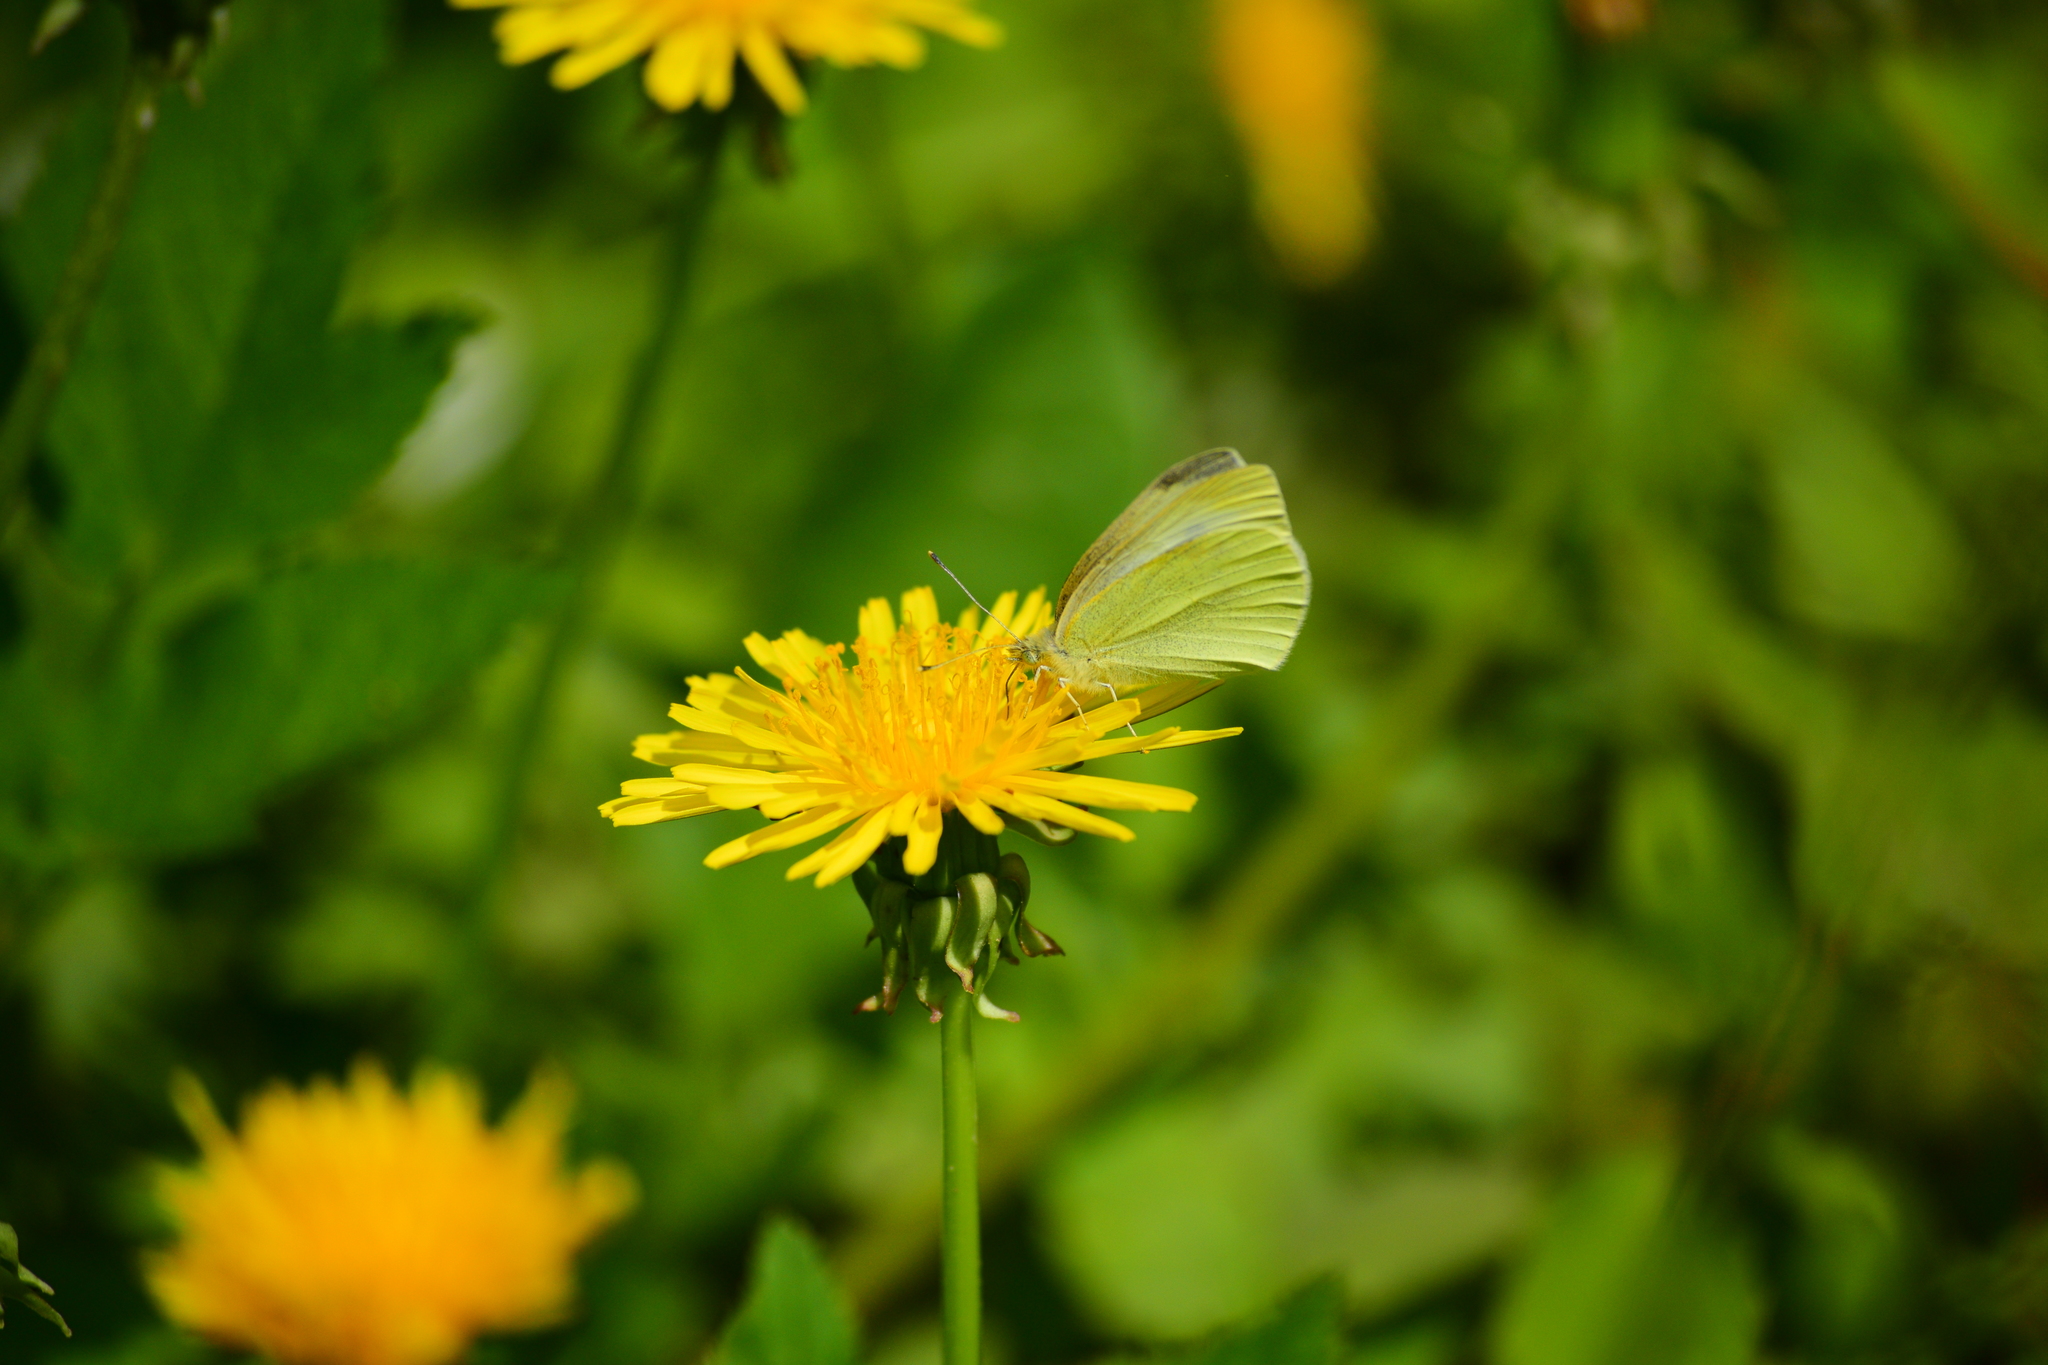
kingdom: Animalia
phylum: Arthropoda
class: Insecta
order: Lepidoptera
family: Pieridae
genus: Pieris
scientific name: Pieris rapae
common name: Small white
